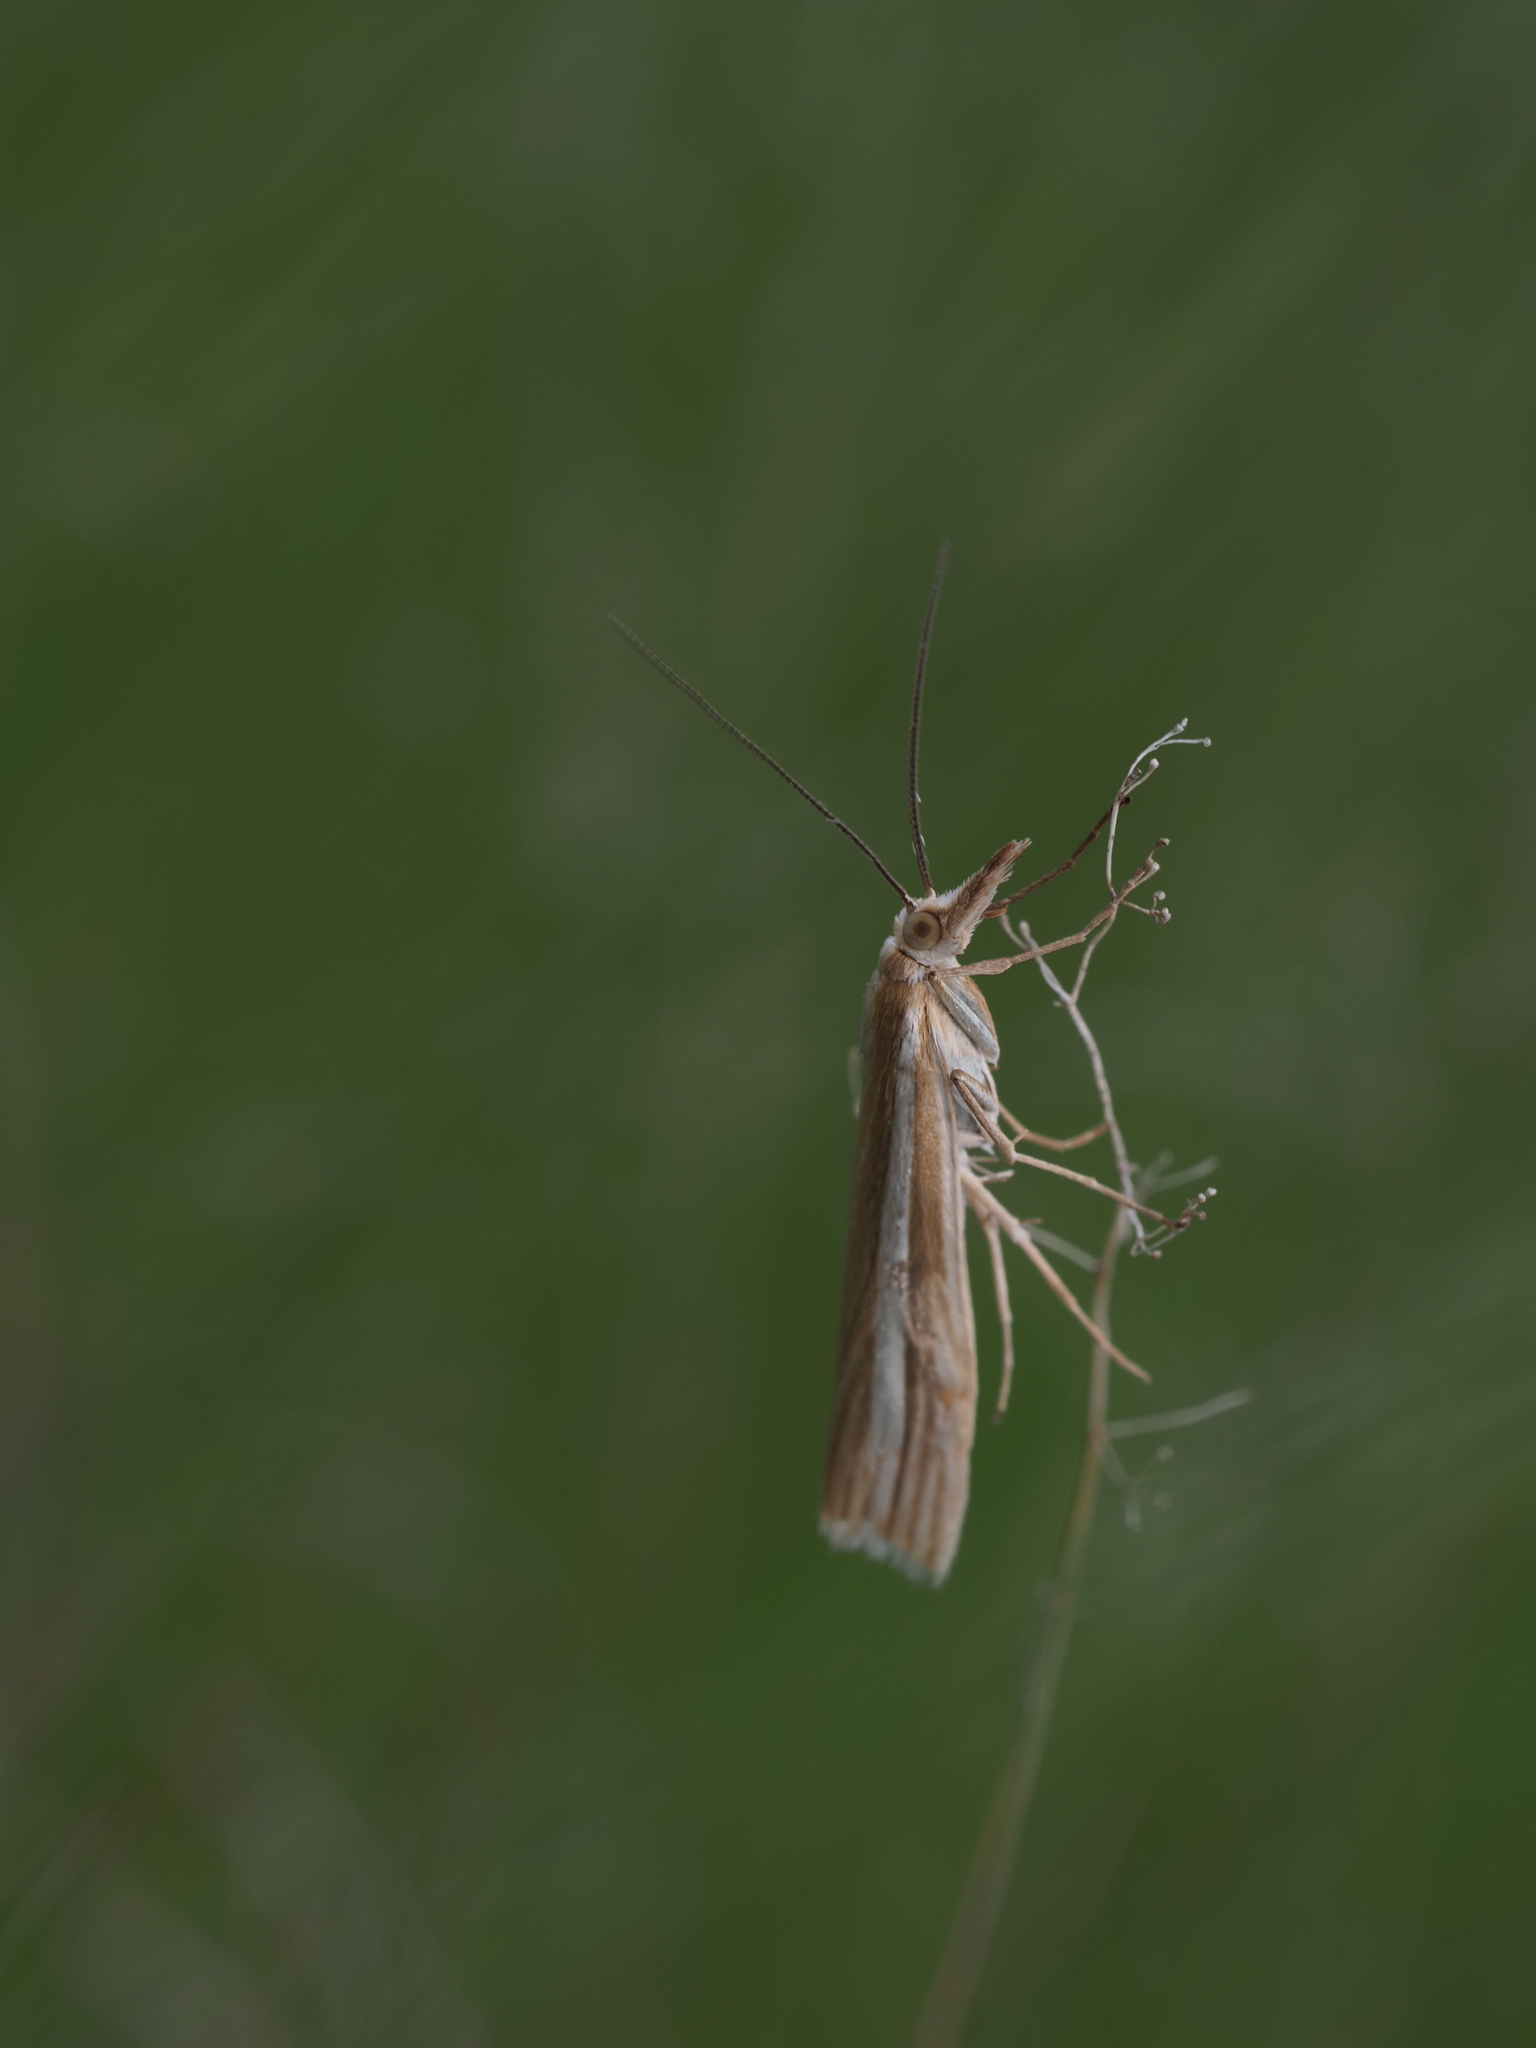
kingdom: Animalia
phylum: Arthropoda
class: Insecta
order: Lepidoptera
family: Crambidae
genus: Orocrambus
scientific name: Orocrambus lewisi
